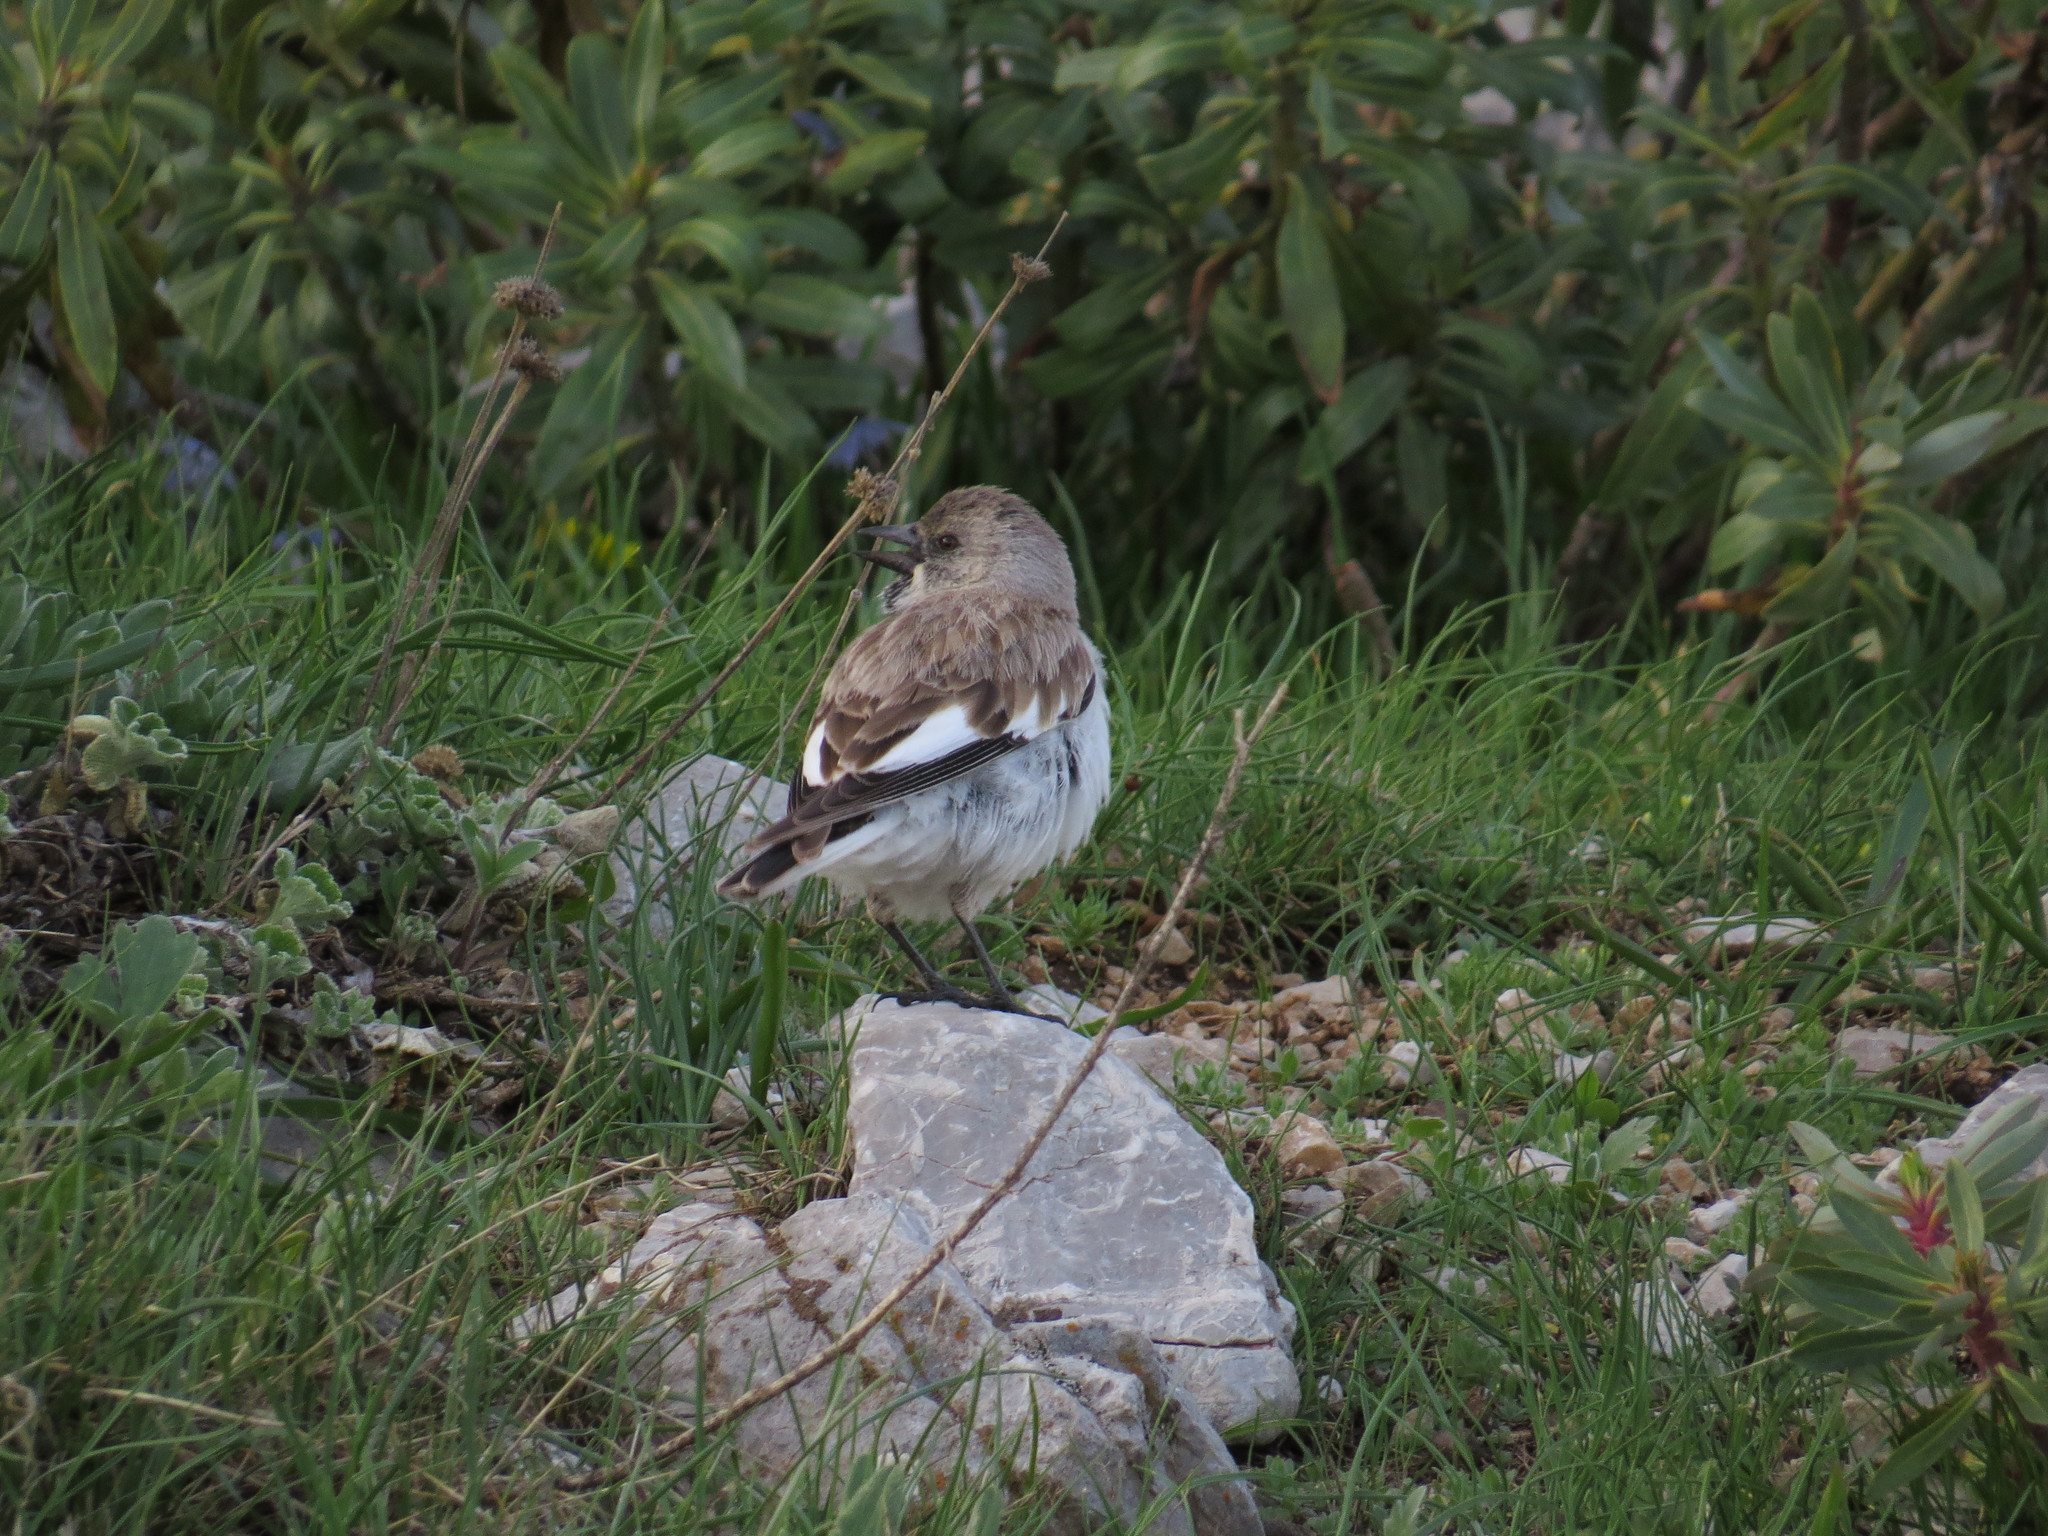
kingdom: Animalia
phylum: Chordata
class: Aves
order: Passeriformes
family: Passeridae
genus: Montifringilla
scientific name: Montifringilla nivalis
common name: White-winged snowfinch
